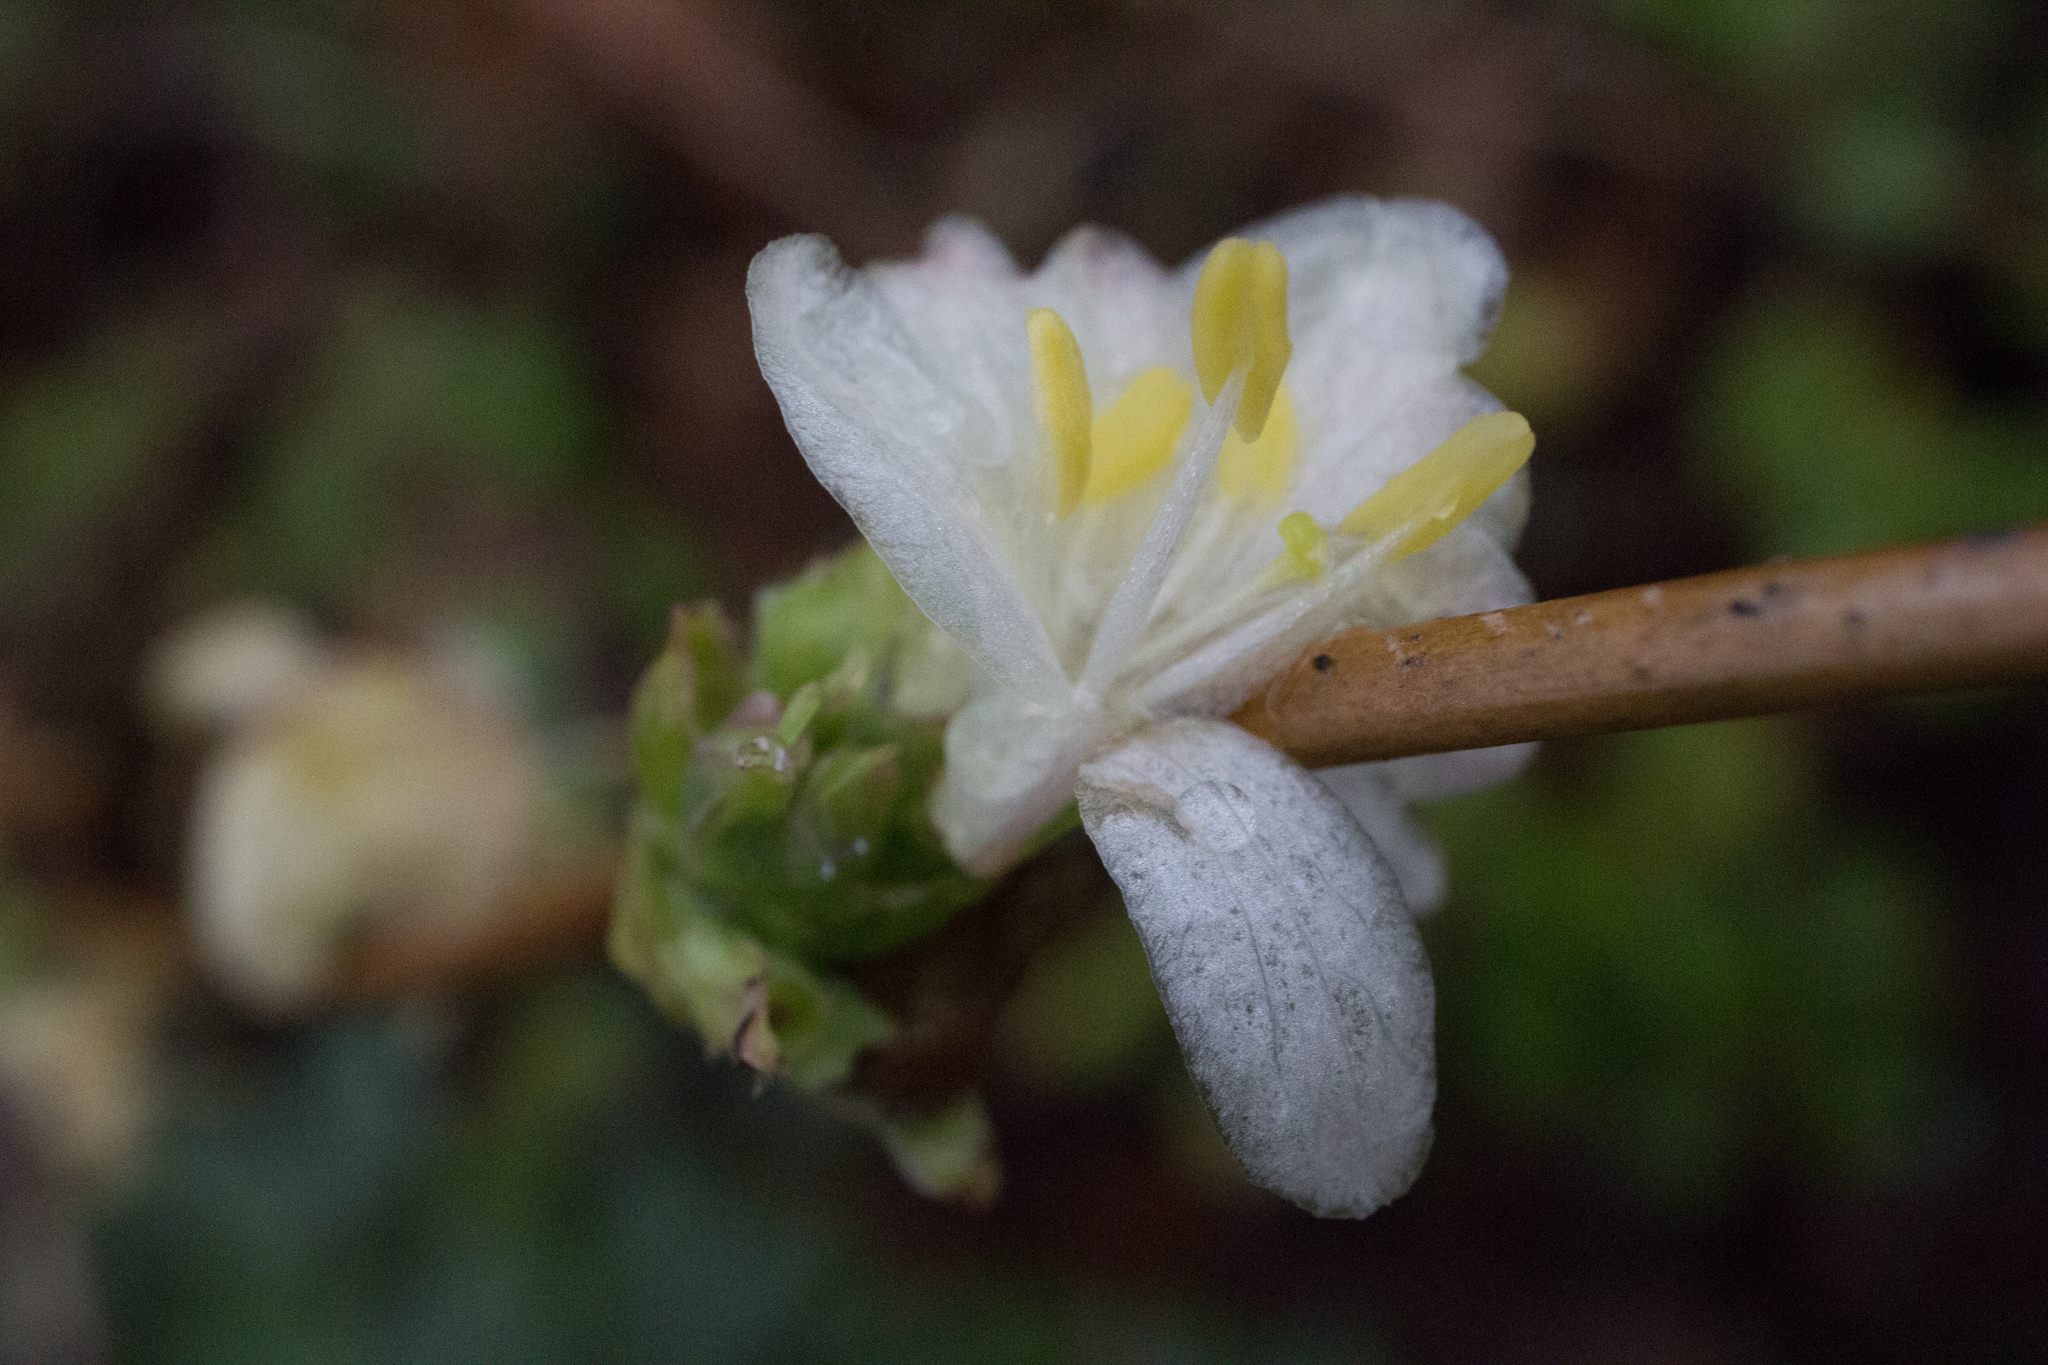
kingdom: Plantae
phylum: Tracheophyta
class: Magnoliopsida
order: Dipsacales
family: Caprifoliaceae
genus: Lonicera
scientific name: Lonicera fragrantissima
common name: Fragrant honeysuckle
